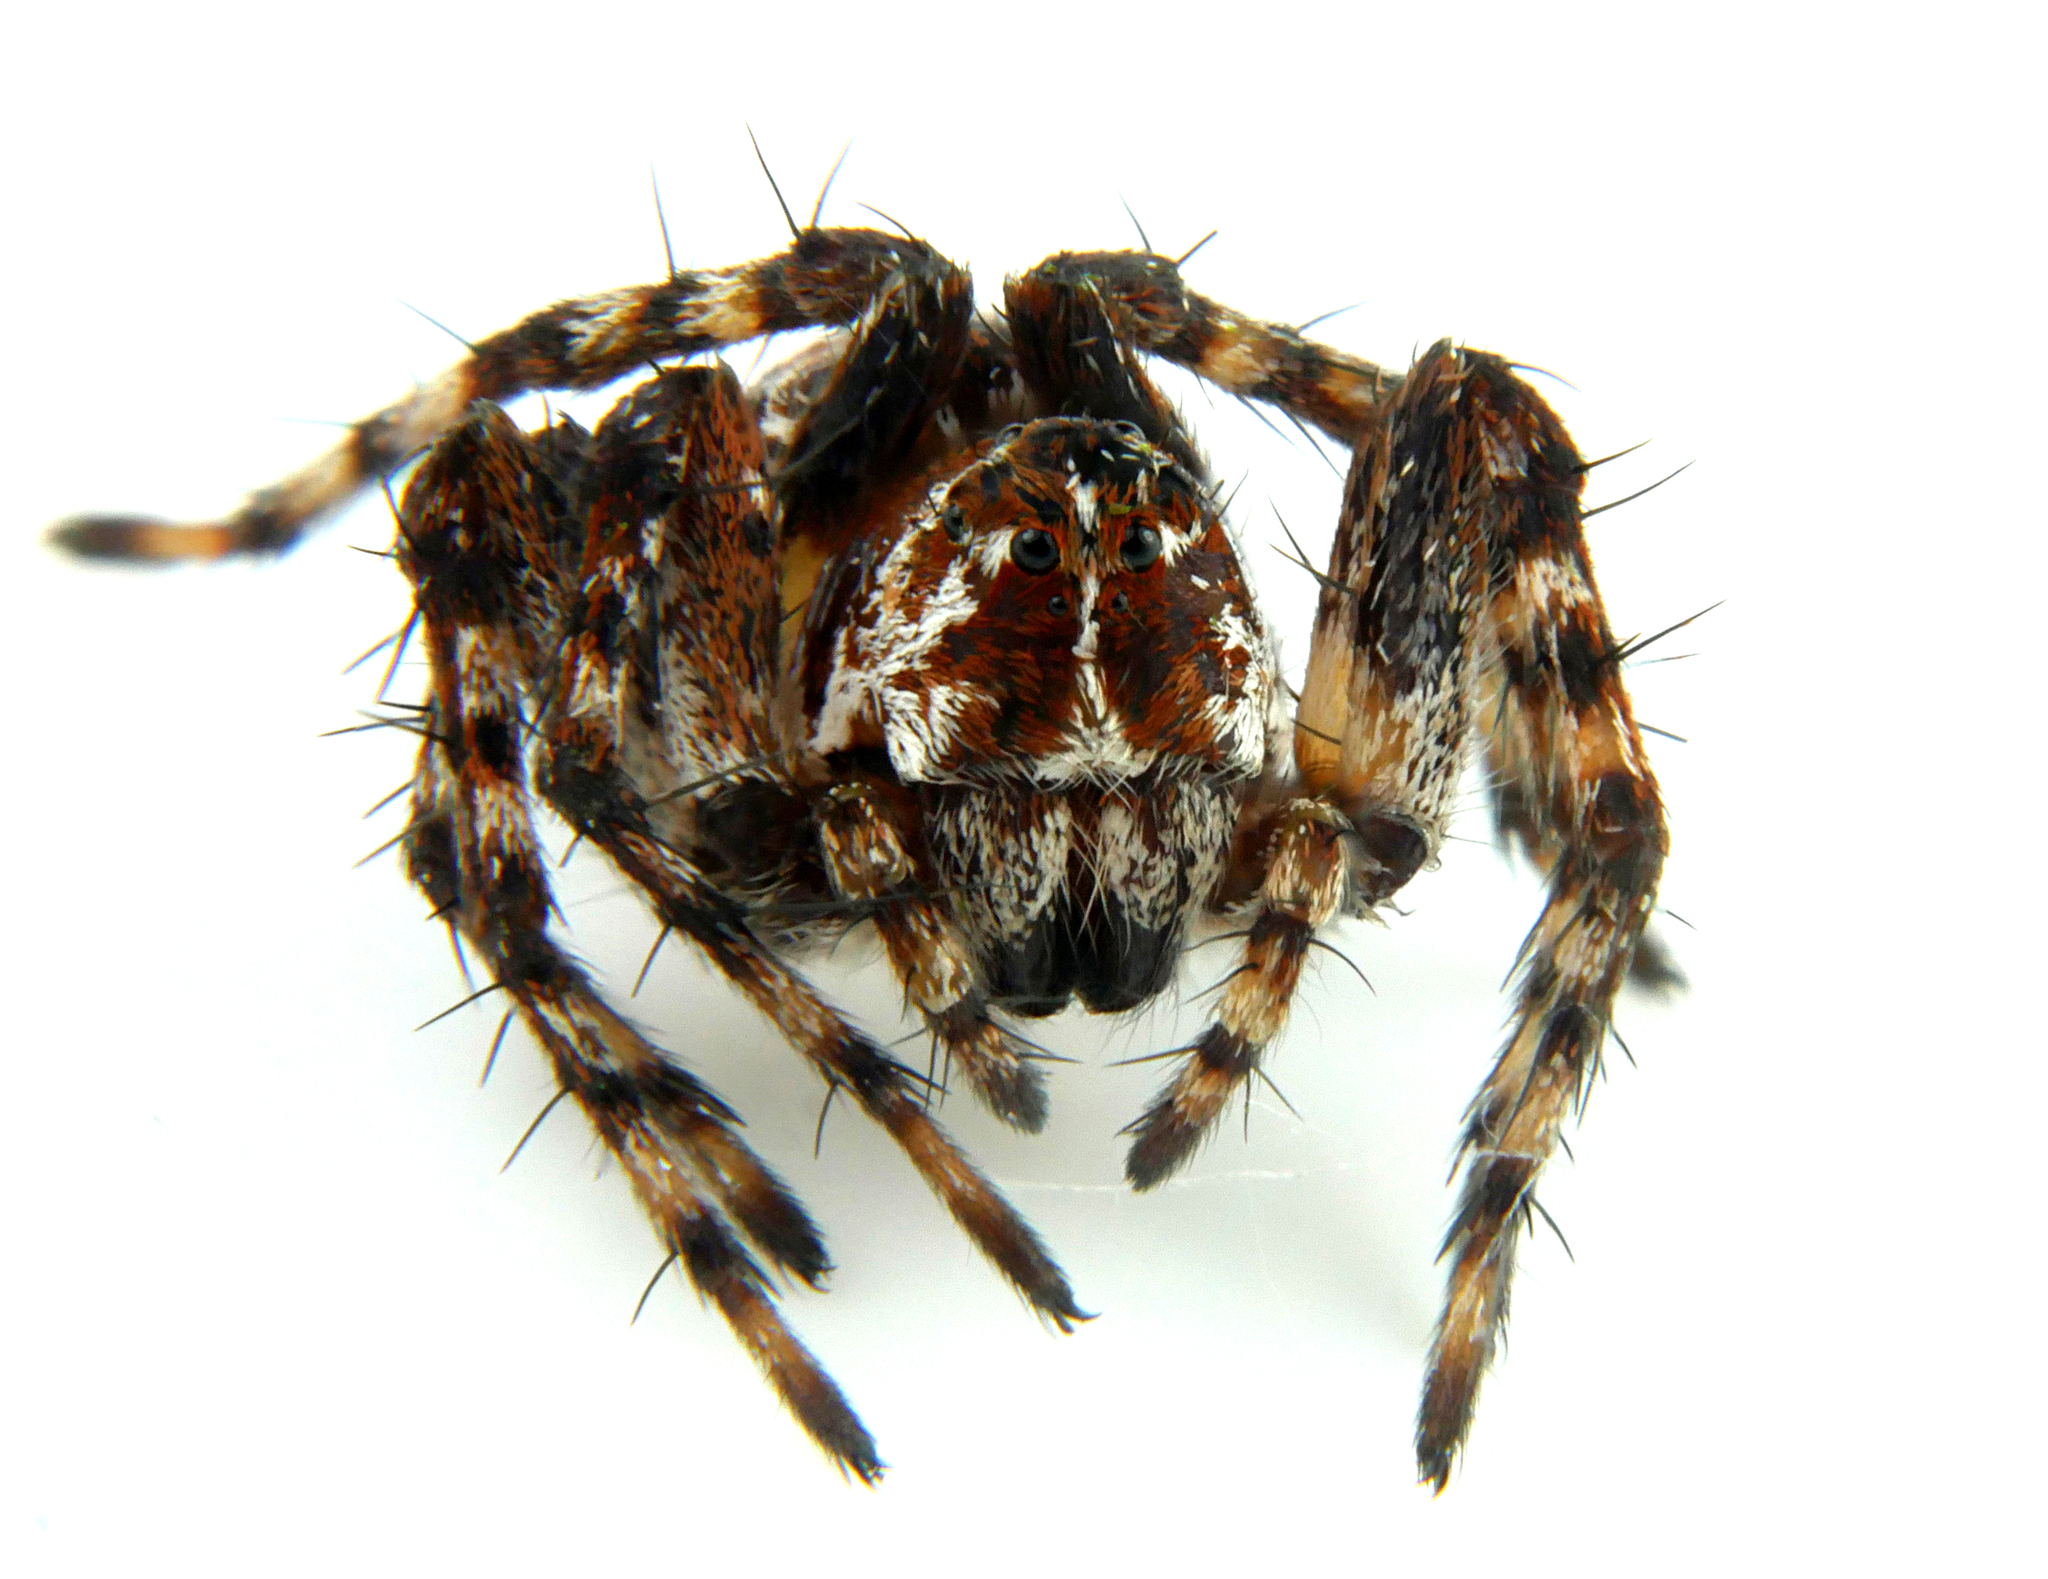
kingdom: Animalia
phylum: Arthropoda
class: Arachnida
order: Araneae
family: Oxyopidae
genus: Oxyopes
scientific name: Oxyopes ramosus
